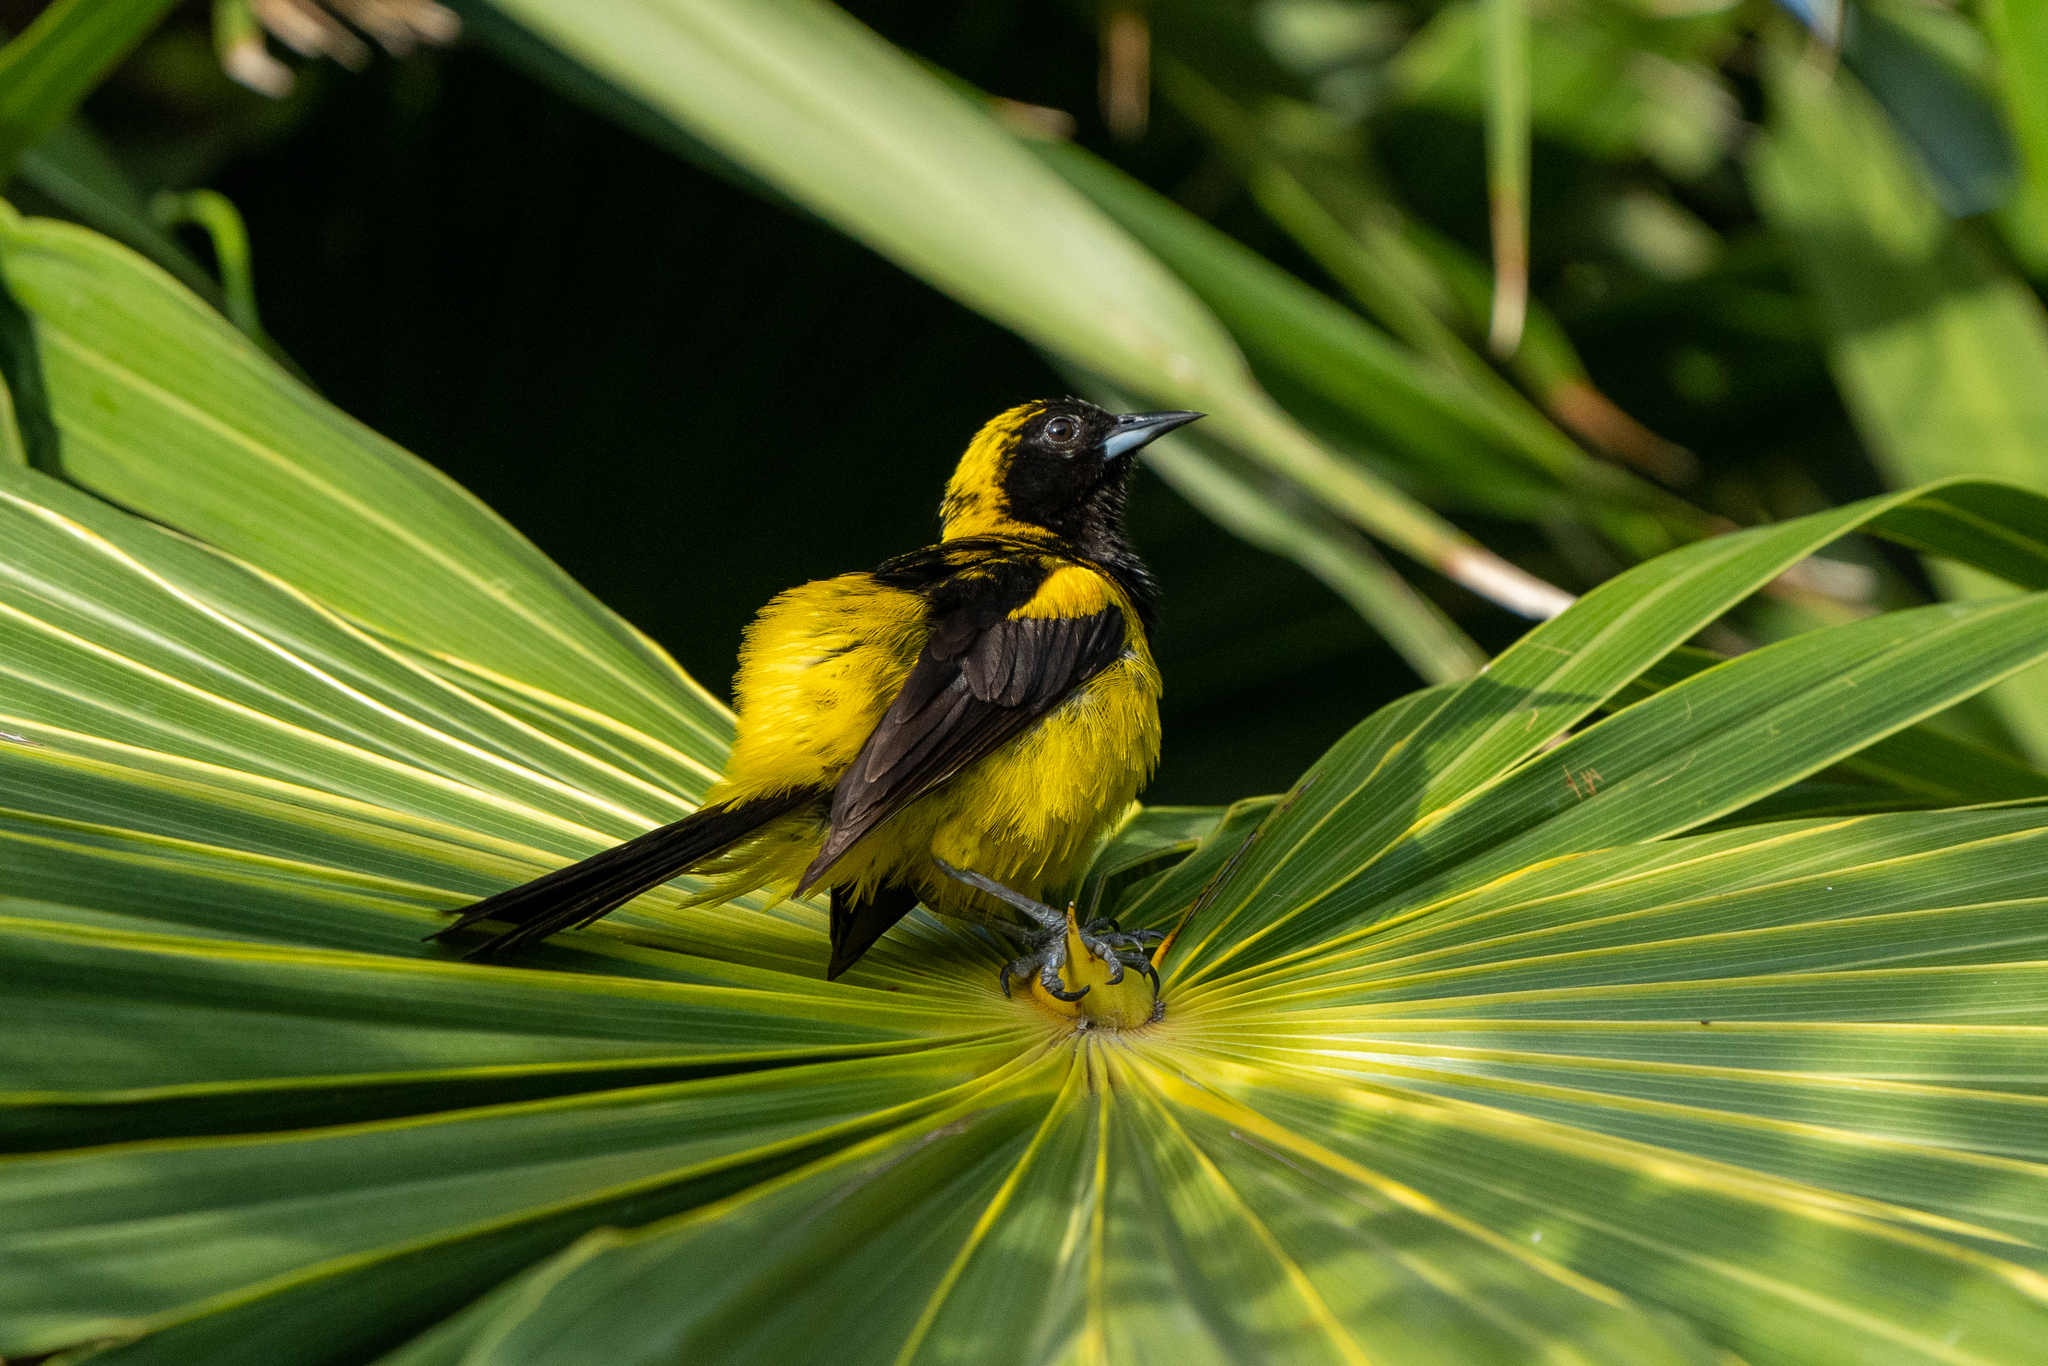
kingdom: Animalia
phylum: Chordata
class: Aves
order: Passeriformes
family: Icteridae
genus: Icterus
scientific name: Icterus prosthemelas
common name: Black-cowled oriole
